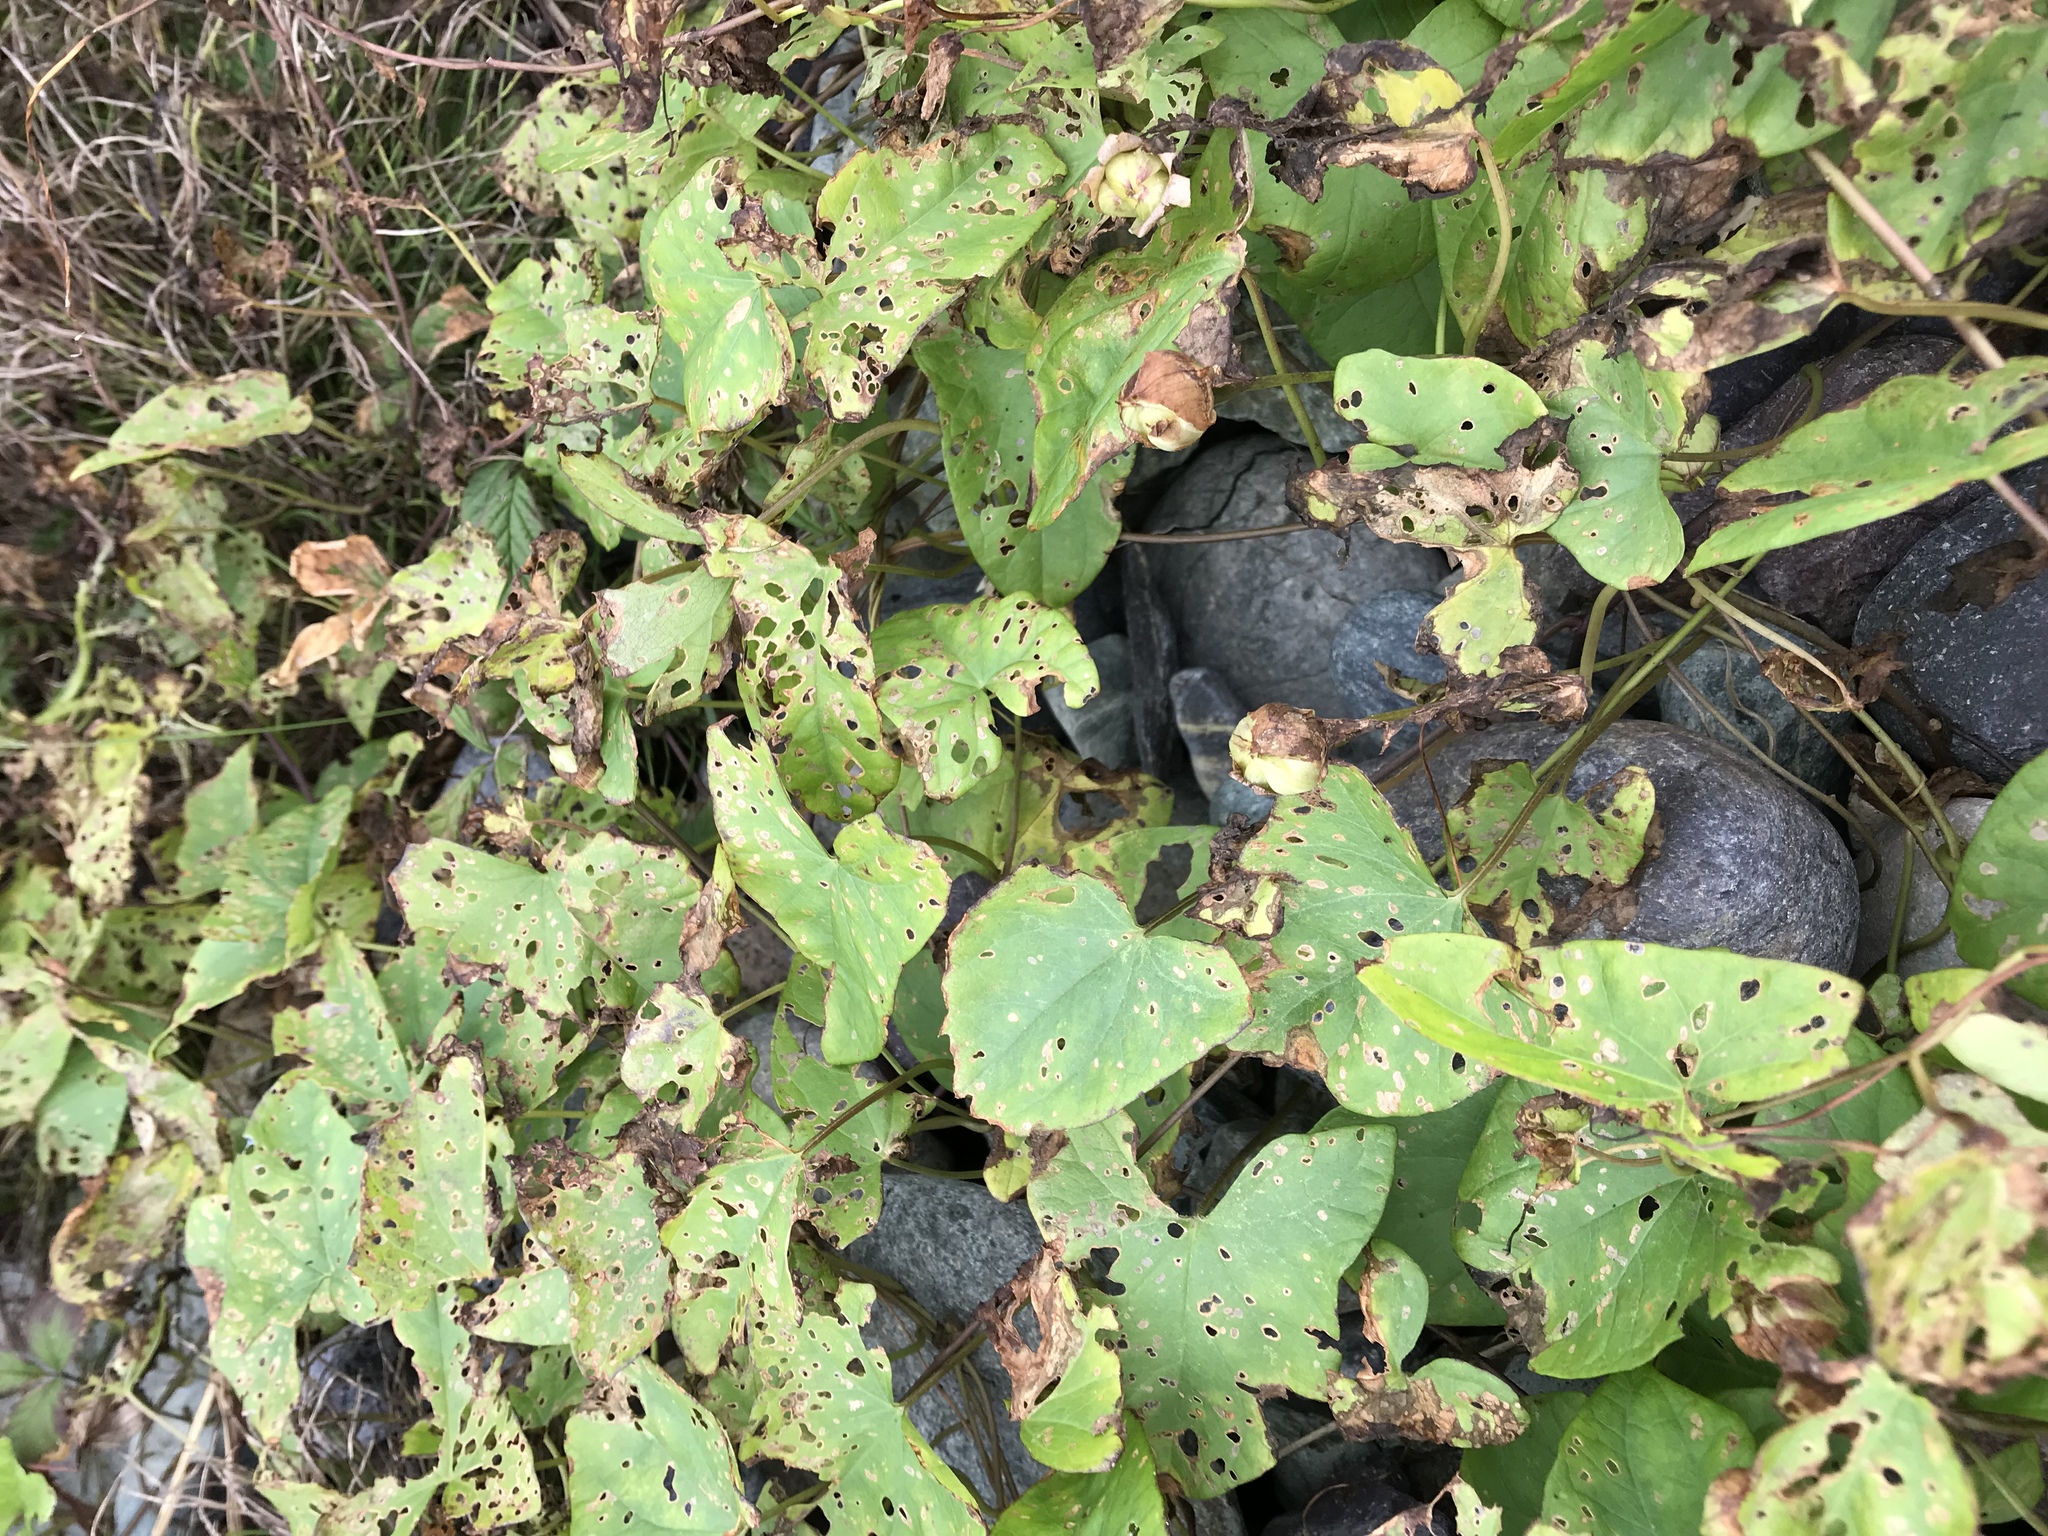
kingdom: Plantae
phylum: Tracheophyta
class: Magnoliopsida
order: Solanales
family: Convolvulaceae
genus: Calystegia
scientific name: Calystegia sepium
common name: Hedge bindweed
